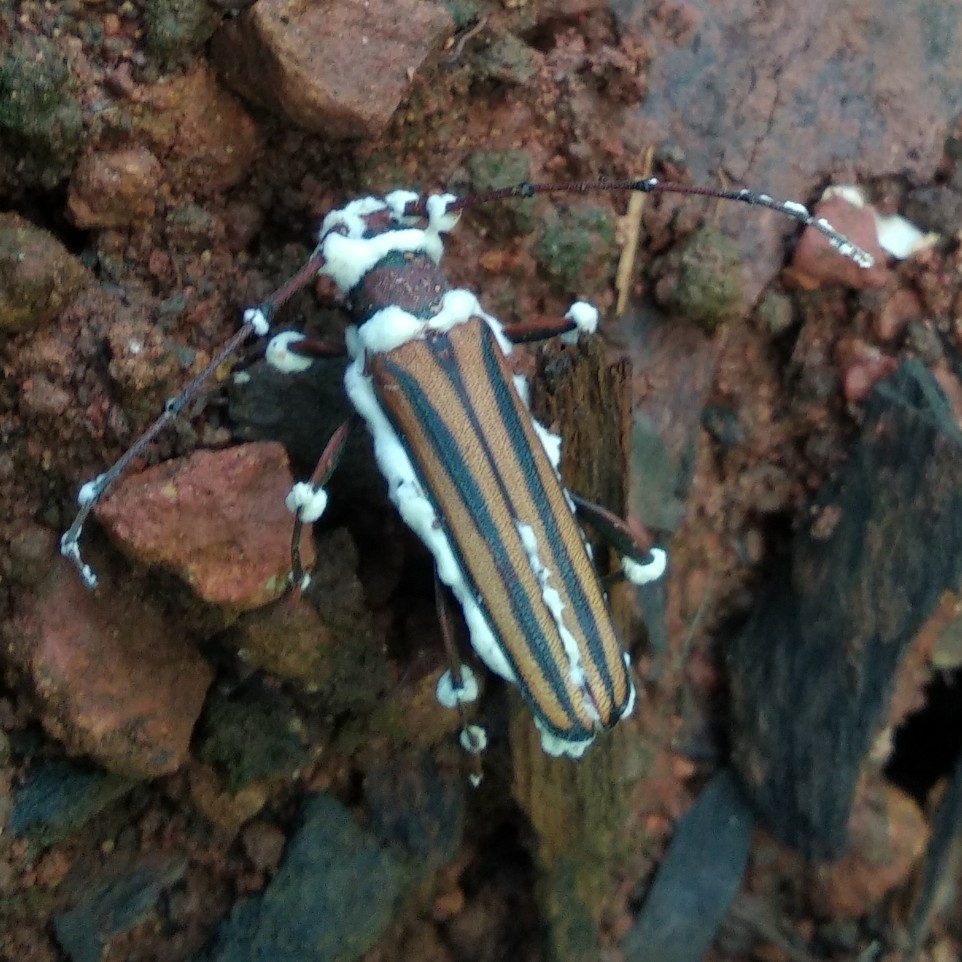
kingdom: Animalia
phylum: Arthropoda
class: Insecta
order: Coleoptera
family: Cerambycidae
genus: Xystrocera
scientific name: Xystrocera globosa
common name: Peach-tree longhorn
